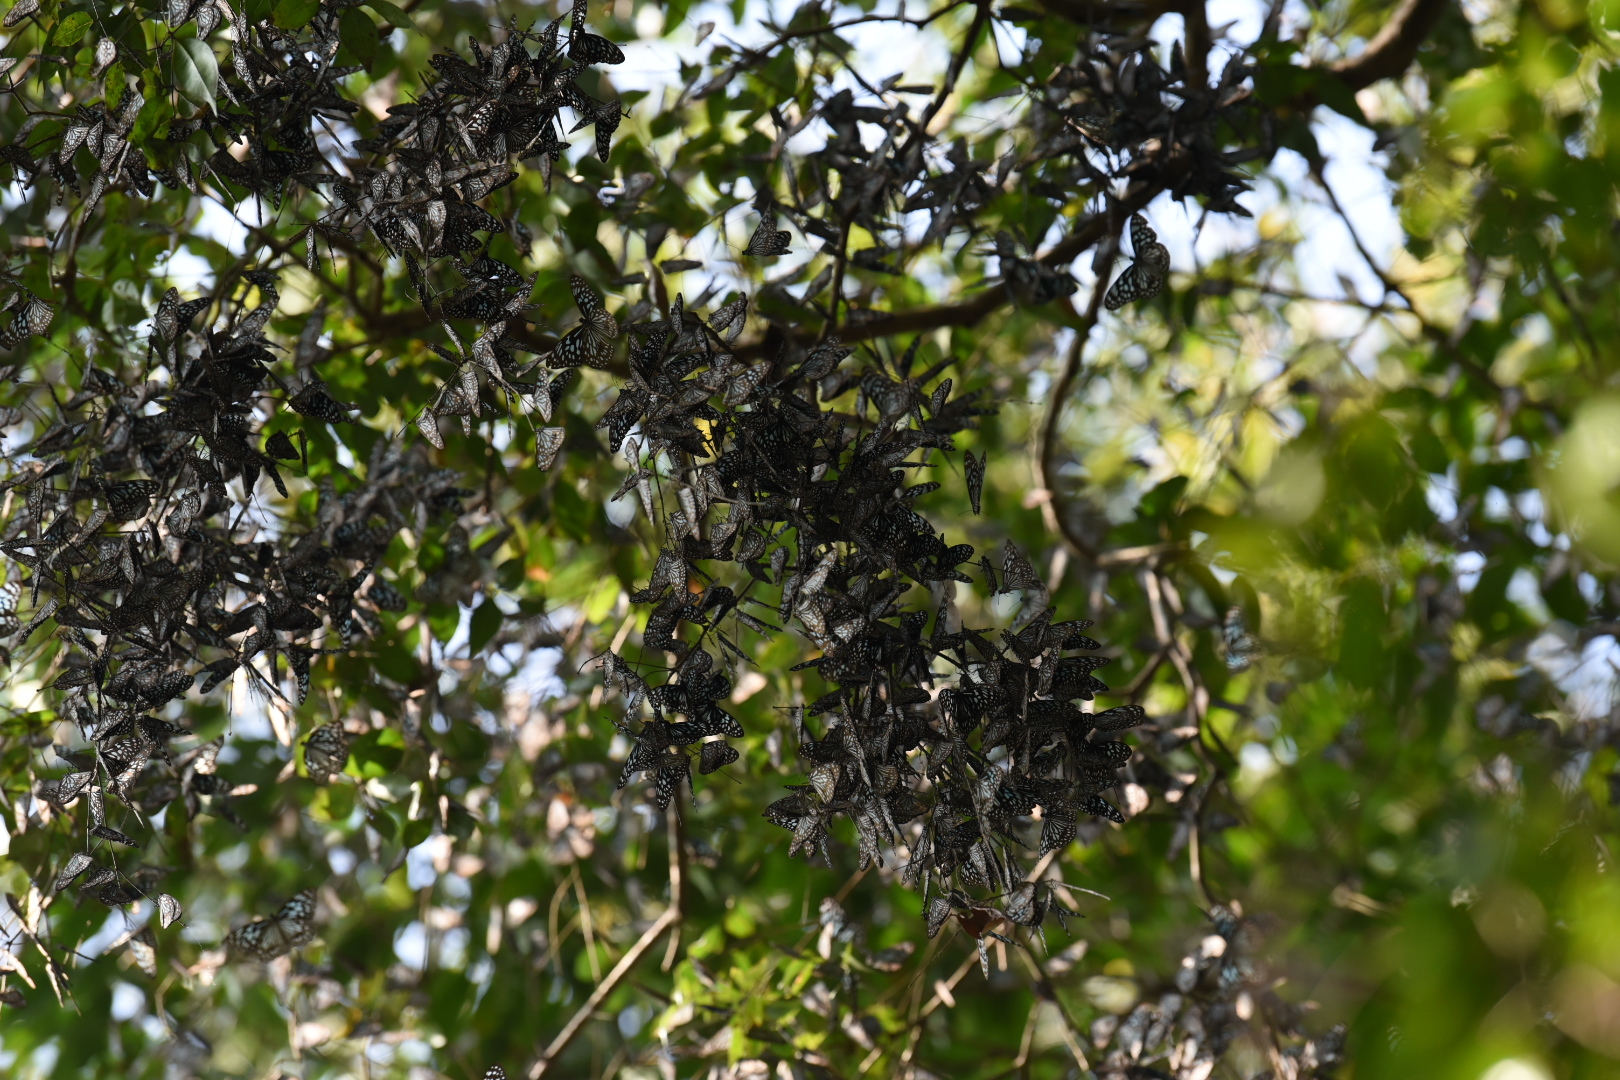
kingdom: Animalia
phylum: Arthropoda
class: Insecta
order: Lepidoptera
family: Nymphalidae
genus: Tirumala
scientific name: Tirumala septentrionis
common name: Dark blue tiger butterfly
